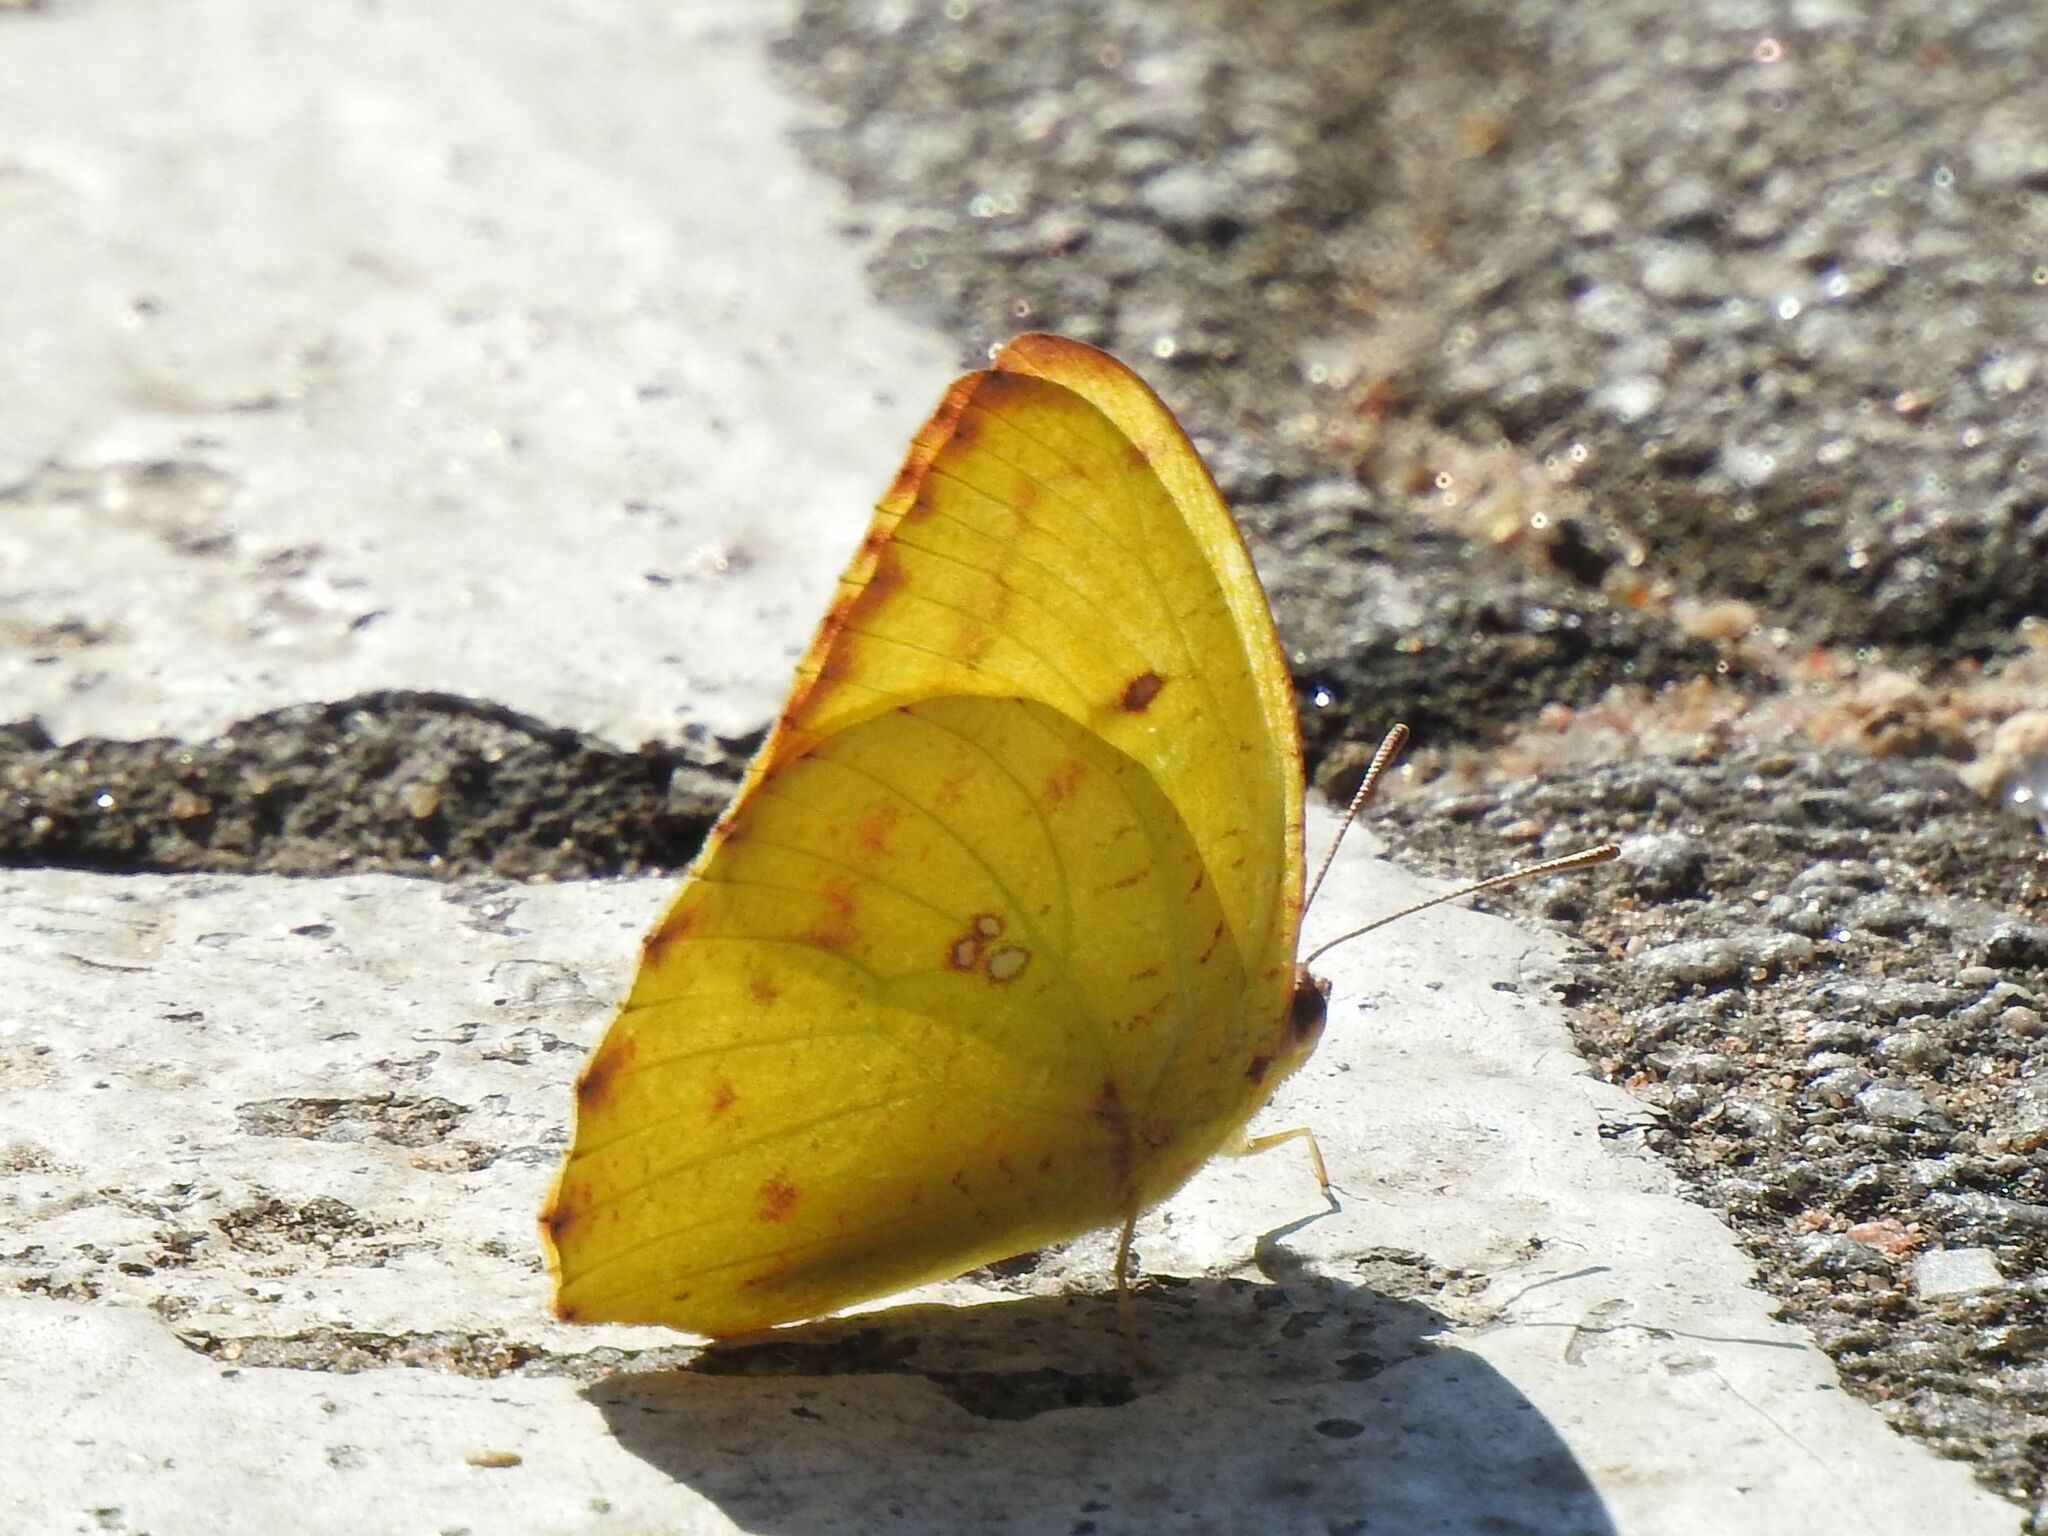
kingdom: Animalia
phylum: Arthropoda
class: Insecta
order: Lepidoptera
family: Pieridae
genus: Catopsilia
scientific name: Catopsilia florella
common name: African migrant
